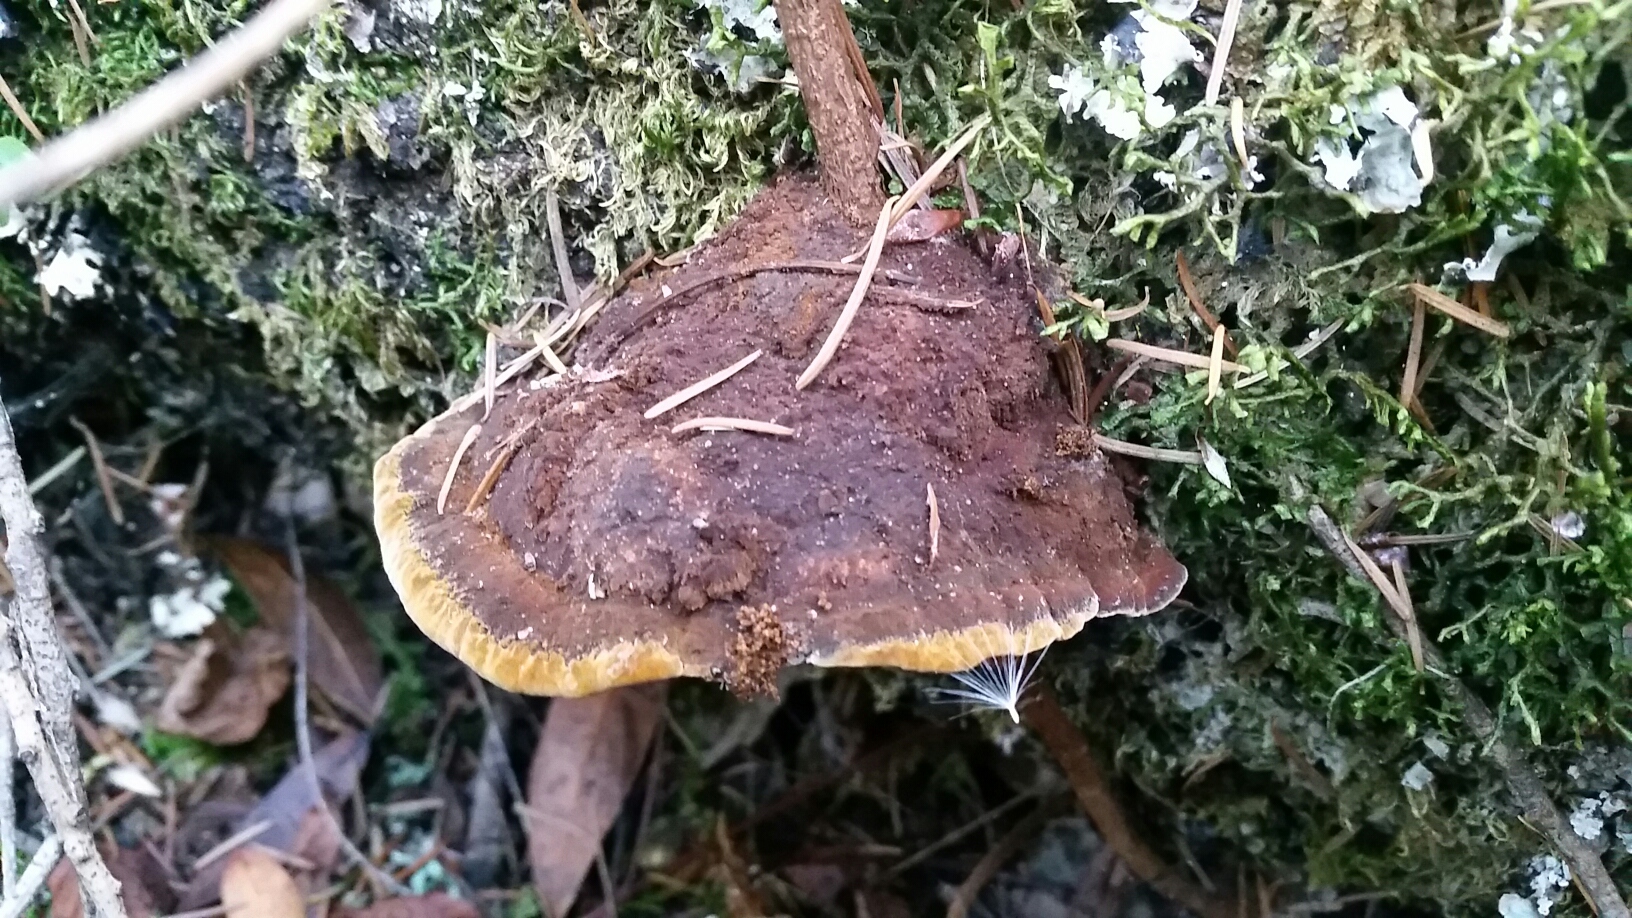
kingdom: Fungi
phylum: Basidiomycota
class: Agaricomycetes
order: Hymenochaetales
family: Hymenochaetaceae
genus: Phellinus
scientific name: Phellinus gilvus
